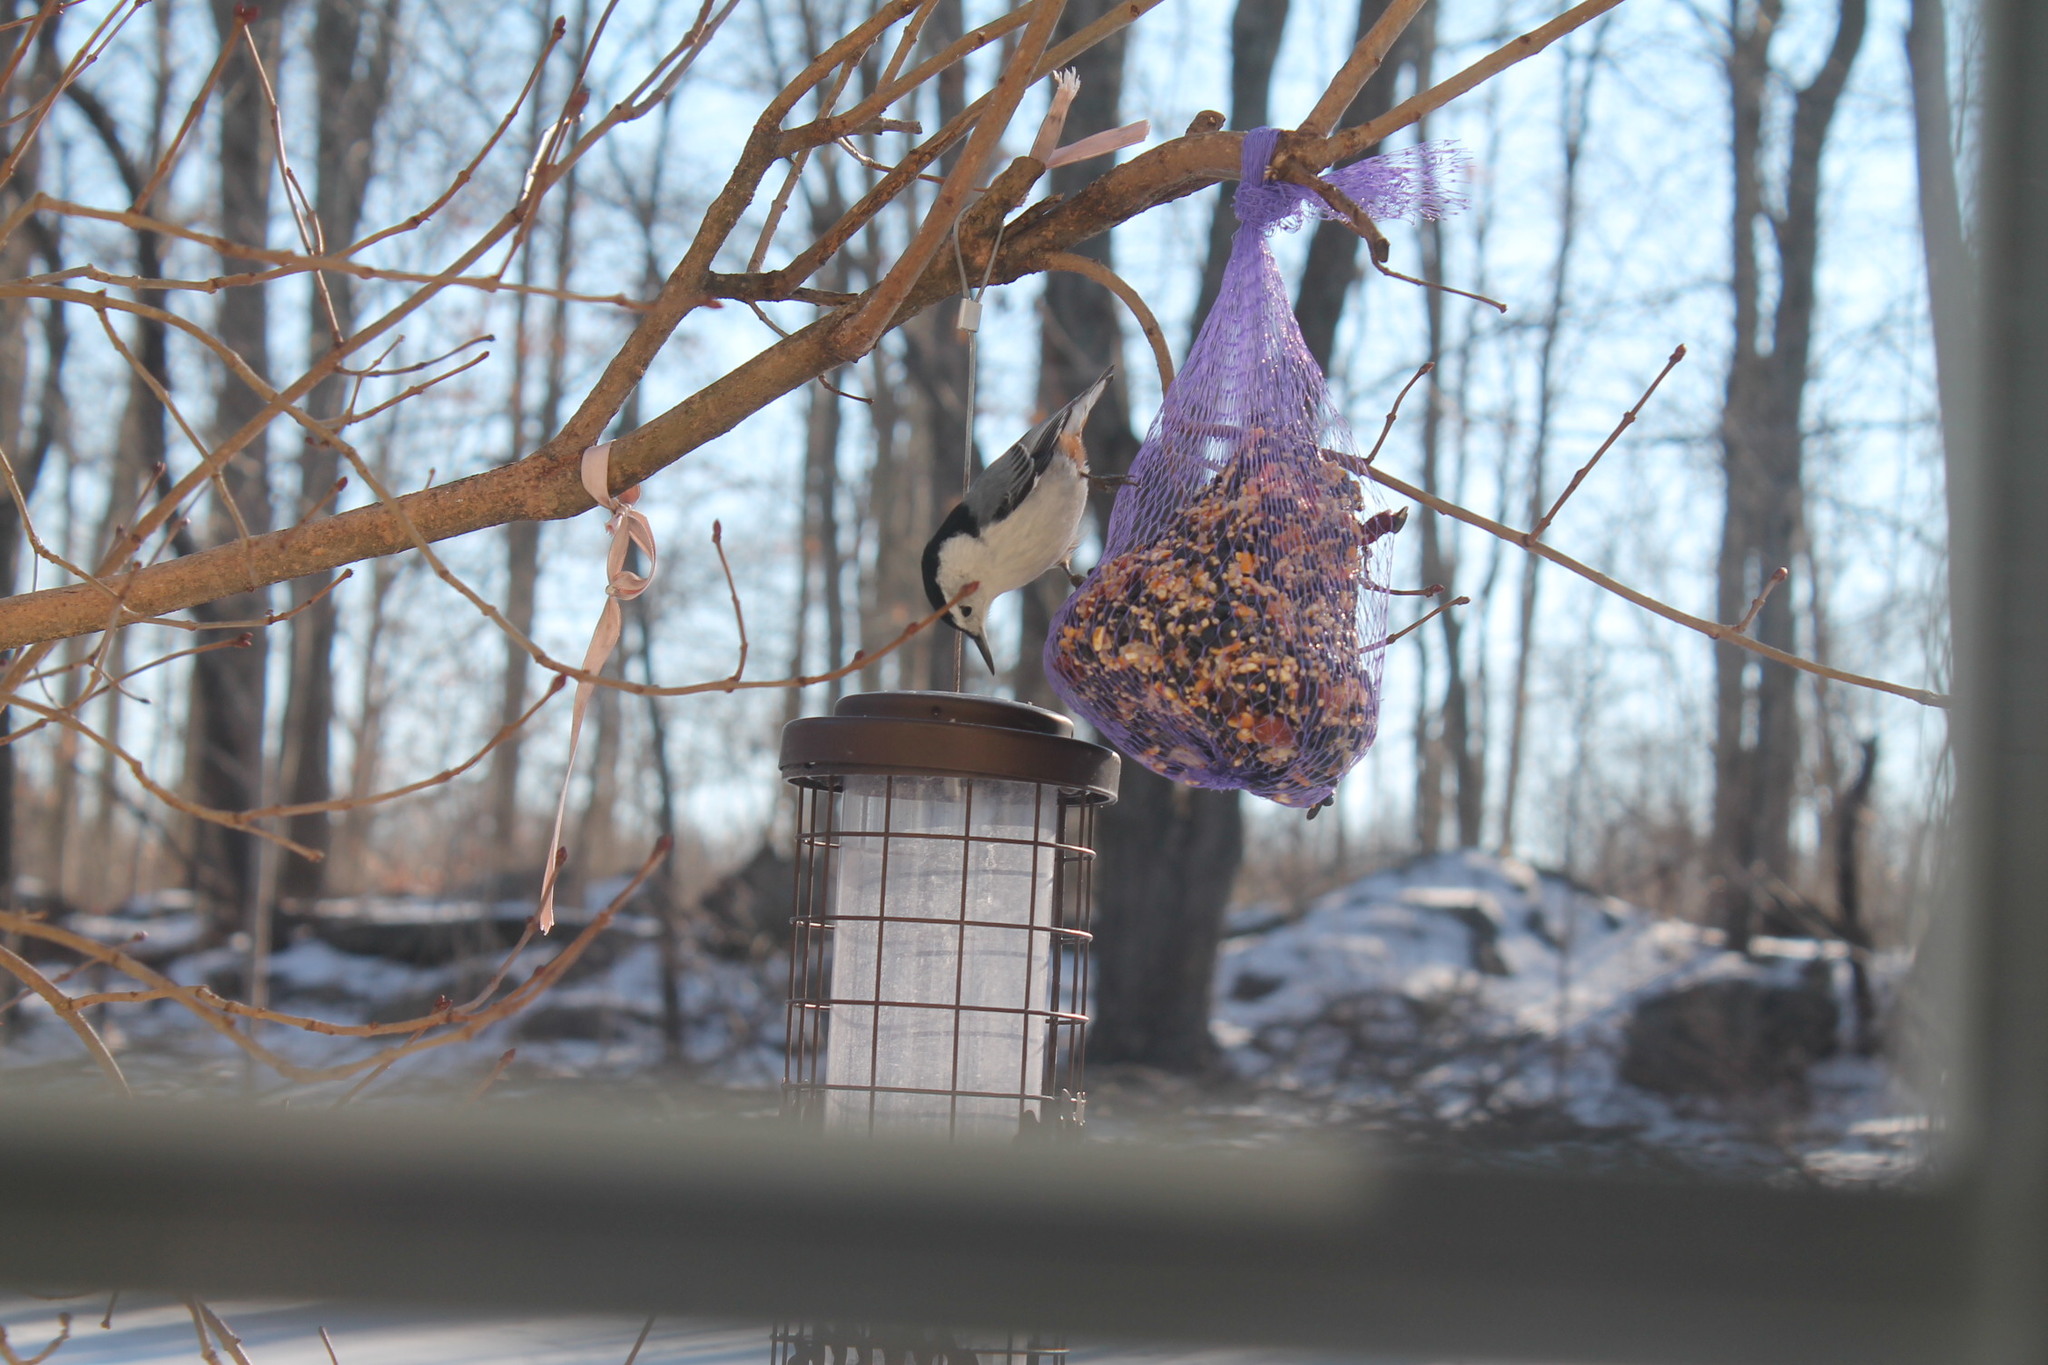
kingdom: Animalia
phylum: Chordata
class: Aves
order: Passeriformes
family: Sittidae
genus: Sitta
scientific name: Sitta carolinensis
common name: White-breasted nuthatch
